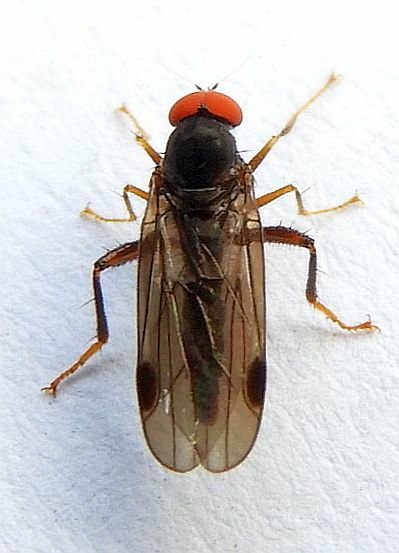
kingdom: Animalia
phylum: Arthropoda
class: Insecta
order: Diptera
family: Hybotidae
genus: Syneches
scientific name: Syneches thoracicus
